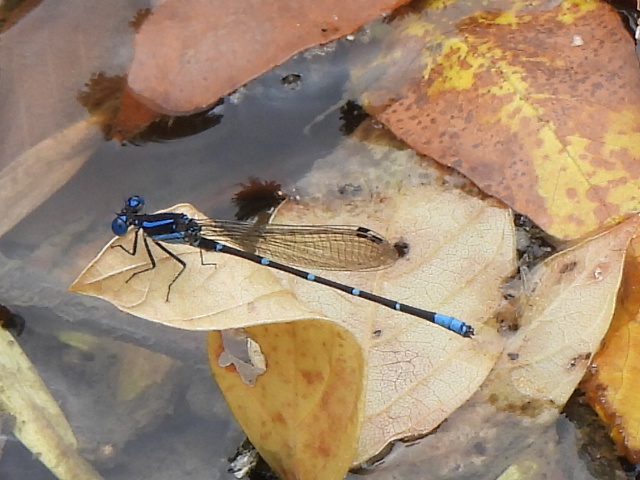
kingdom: Animalia
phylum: Arthropoda
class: Insecta
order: Odonata
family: Coenagrionidae
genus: Argia
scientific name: Argia sedula
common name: Blue-ringed dancer
